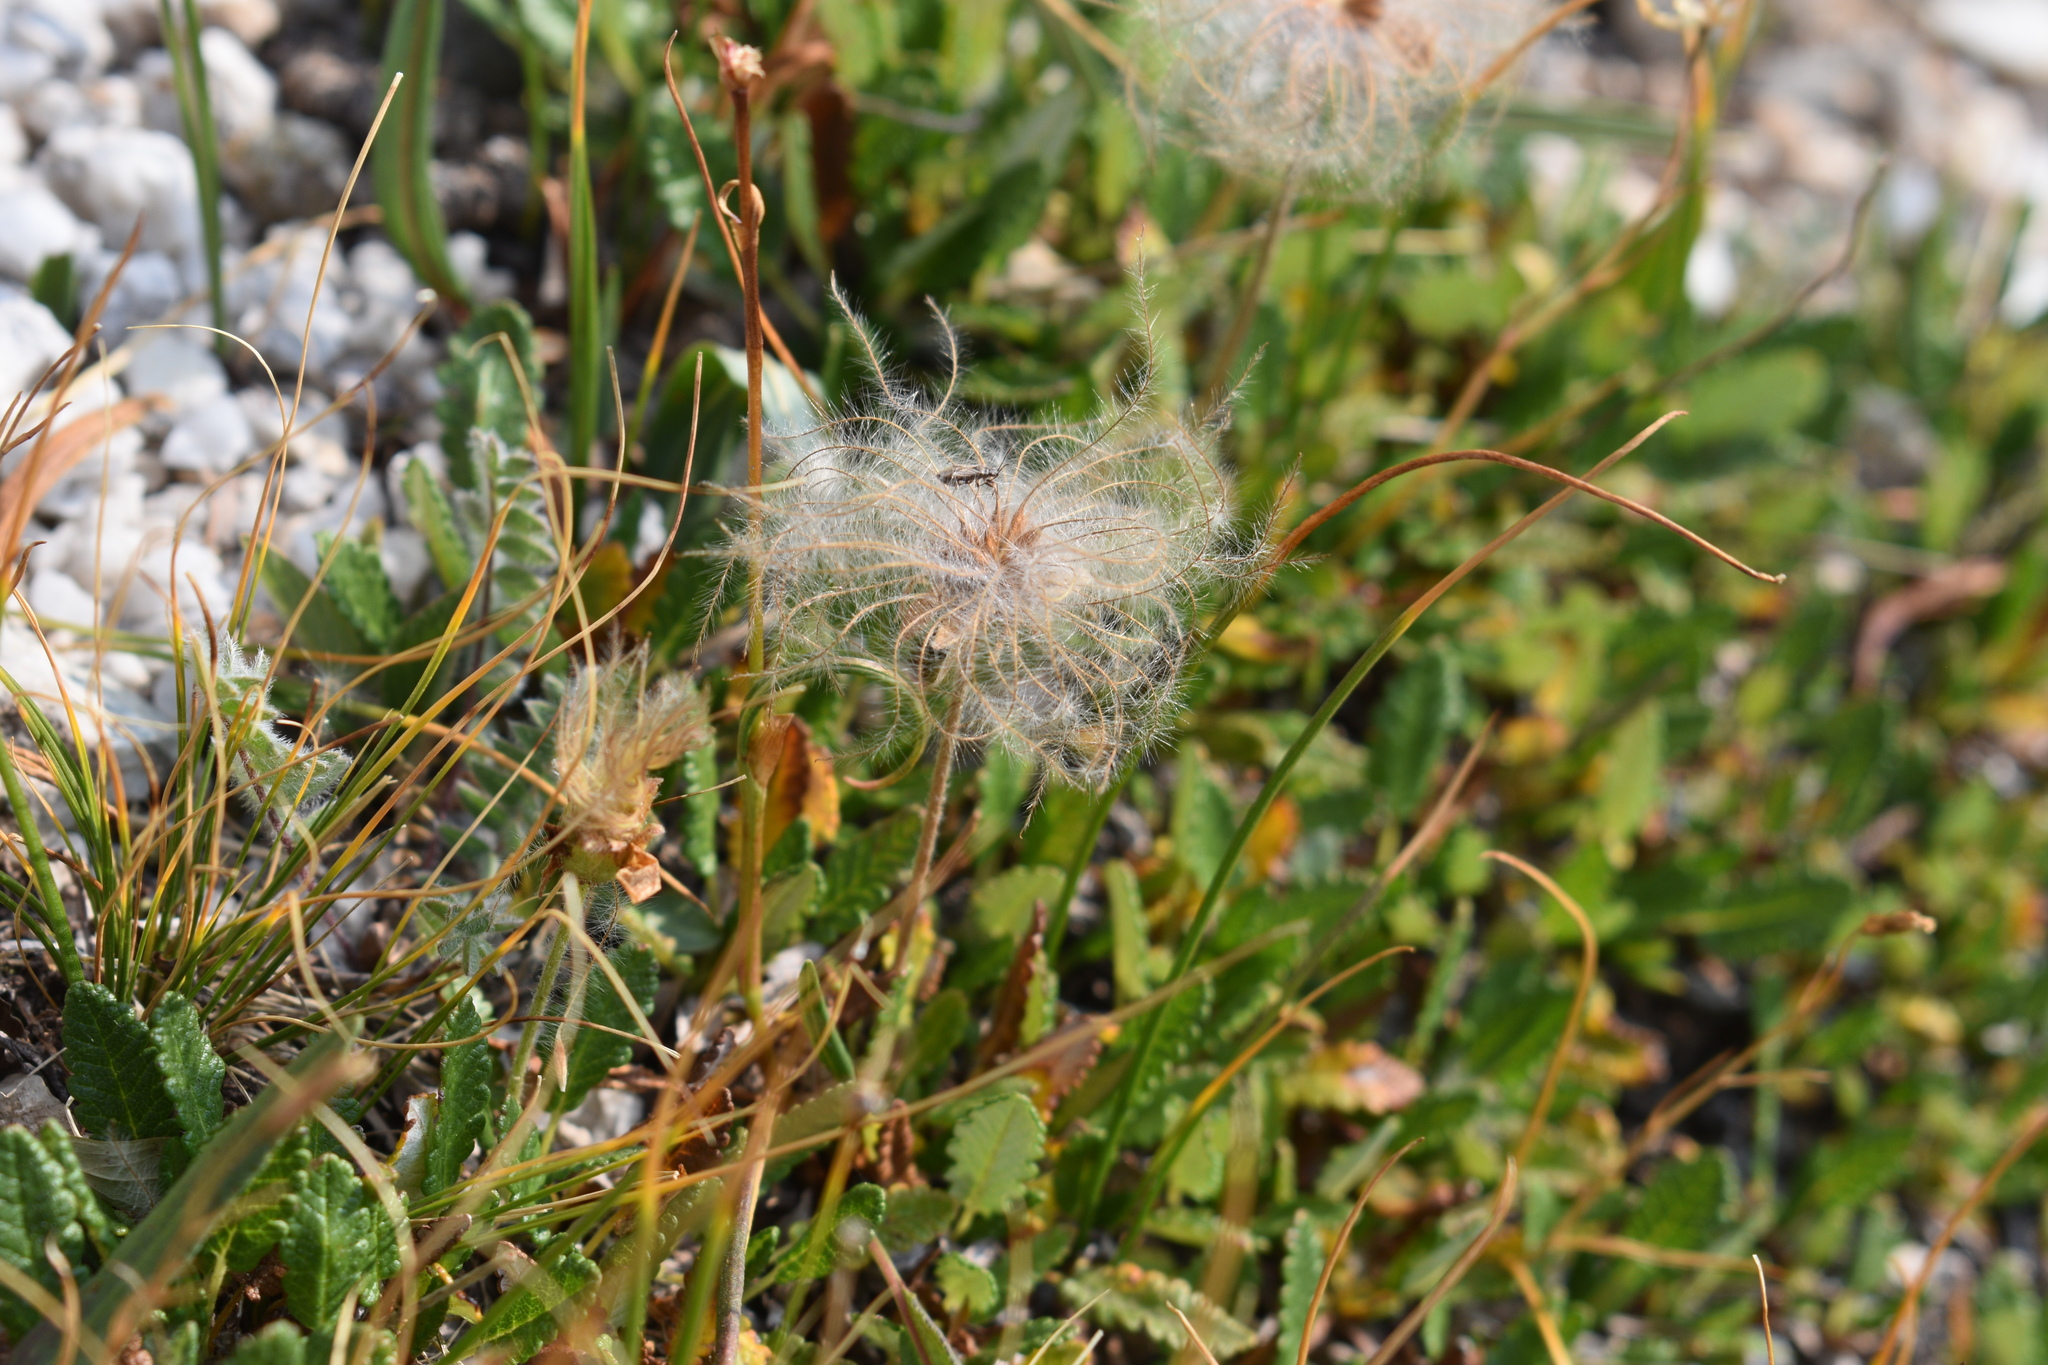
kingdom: Plantae
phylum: Tracheophyta
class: Magnoliopsida
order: Rosales
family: Rosaceae
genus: Dryas
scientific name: Dryas octopetala
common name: Eight-petal mountain-avens
